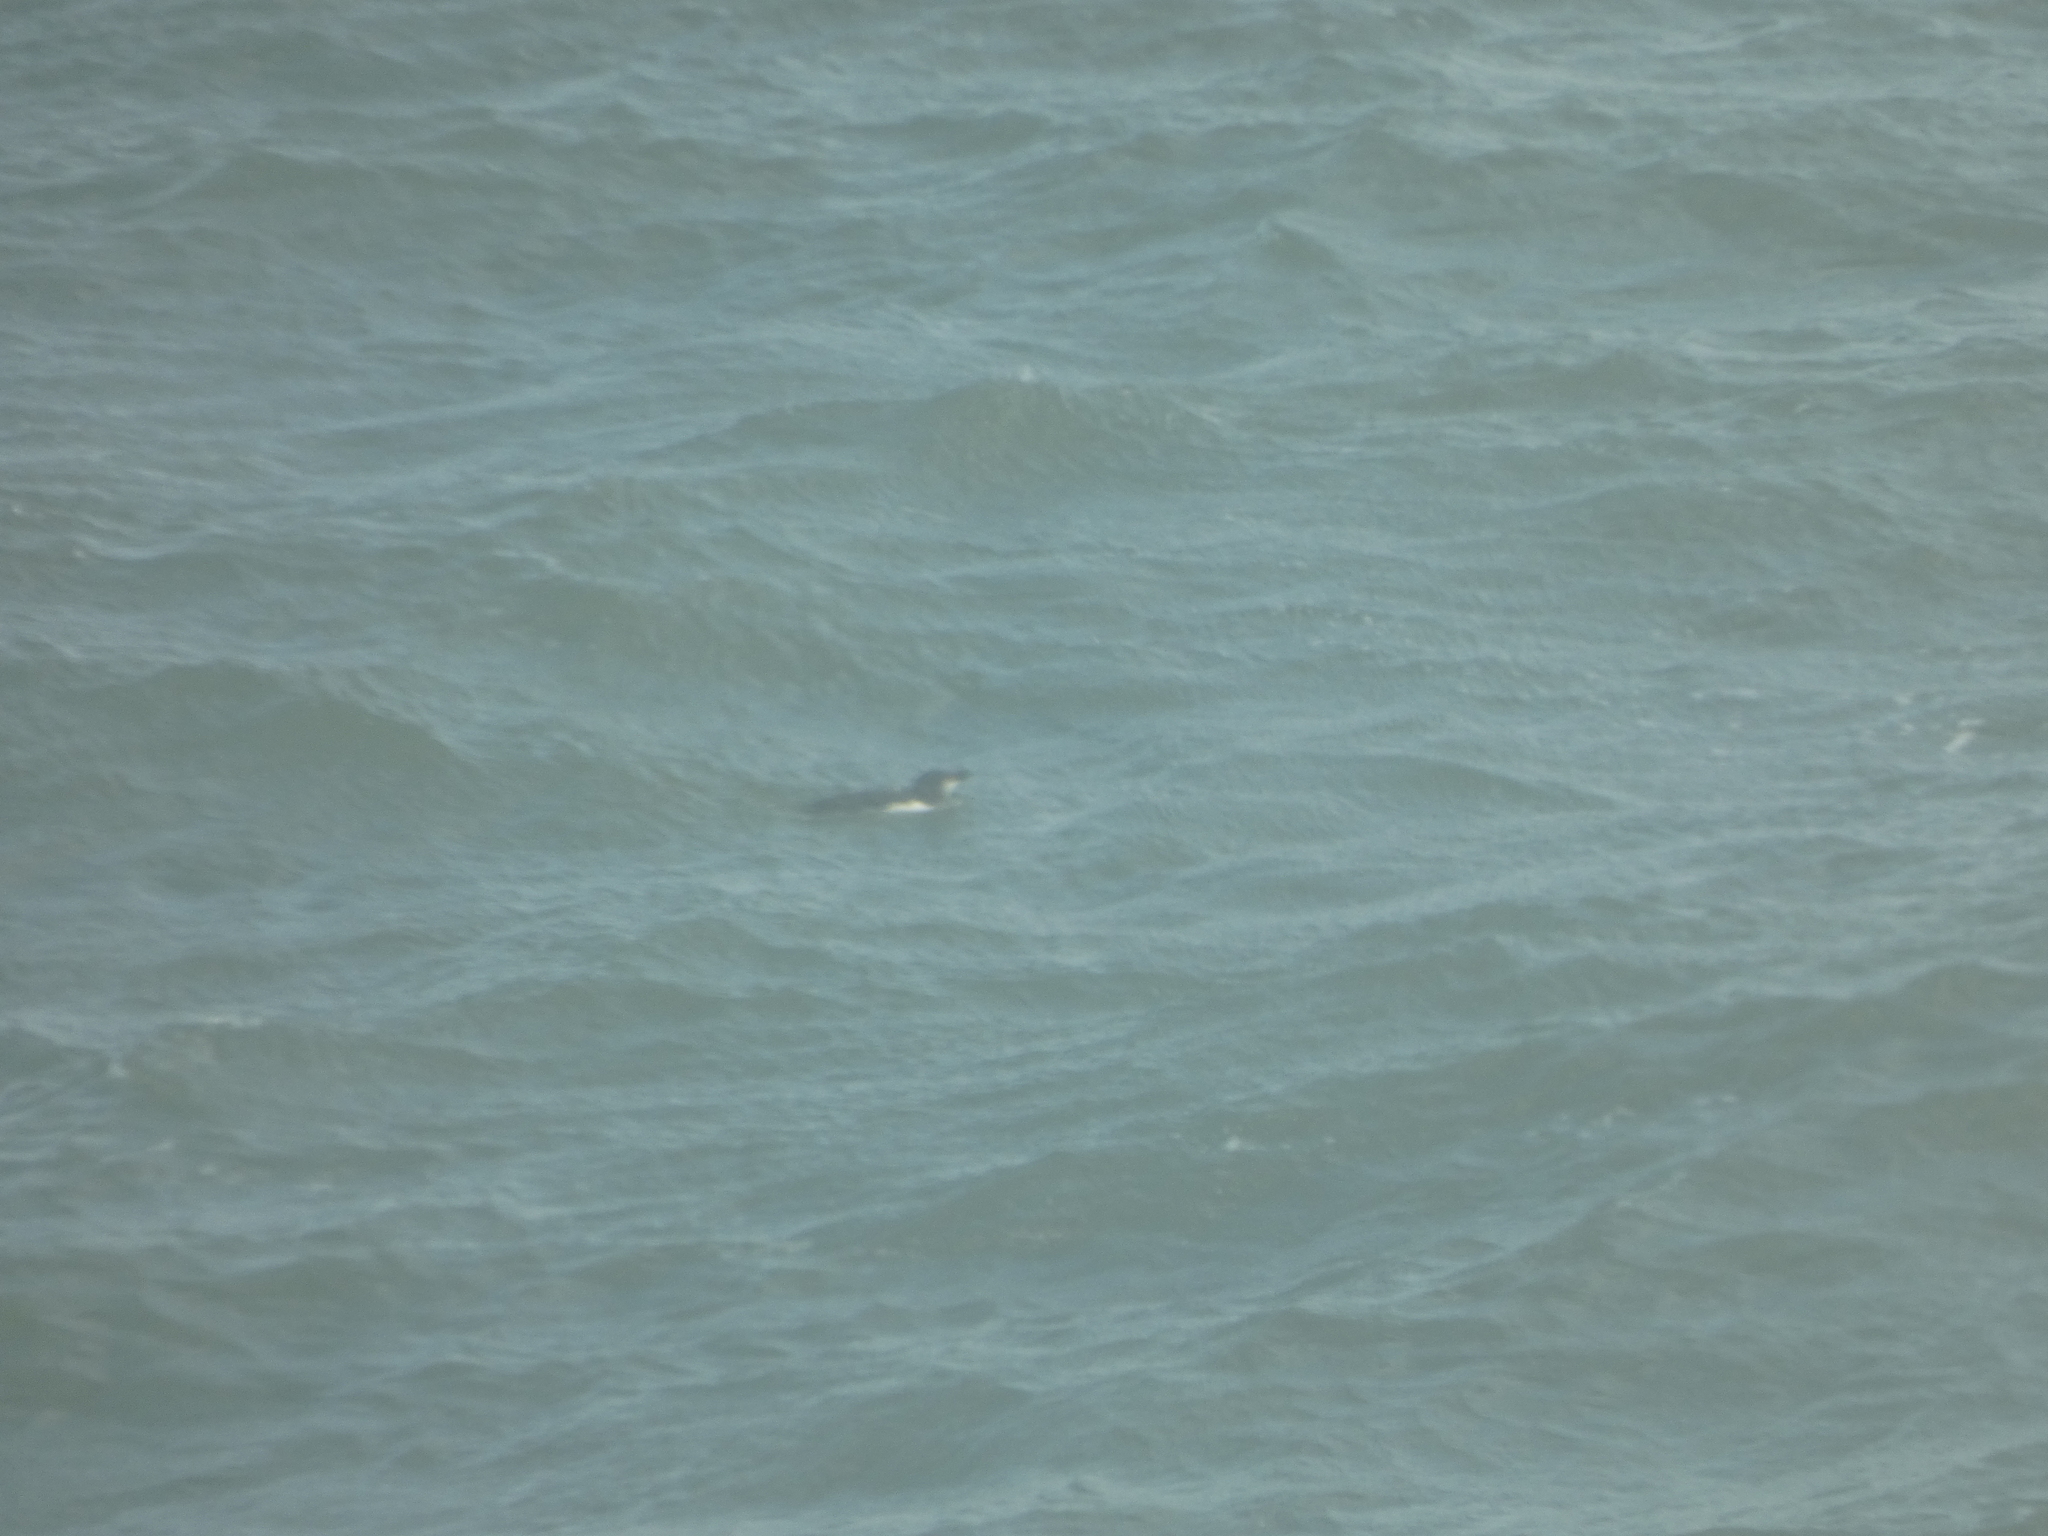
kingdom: Animalia
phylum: Chordata
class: Aves
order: Charadriiformes
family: Alcidae
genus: Alca
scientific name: Alca torda
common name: Razorbill
